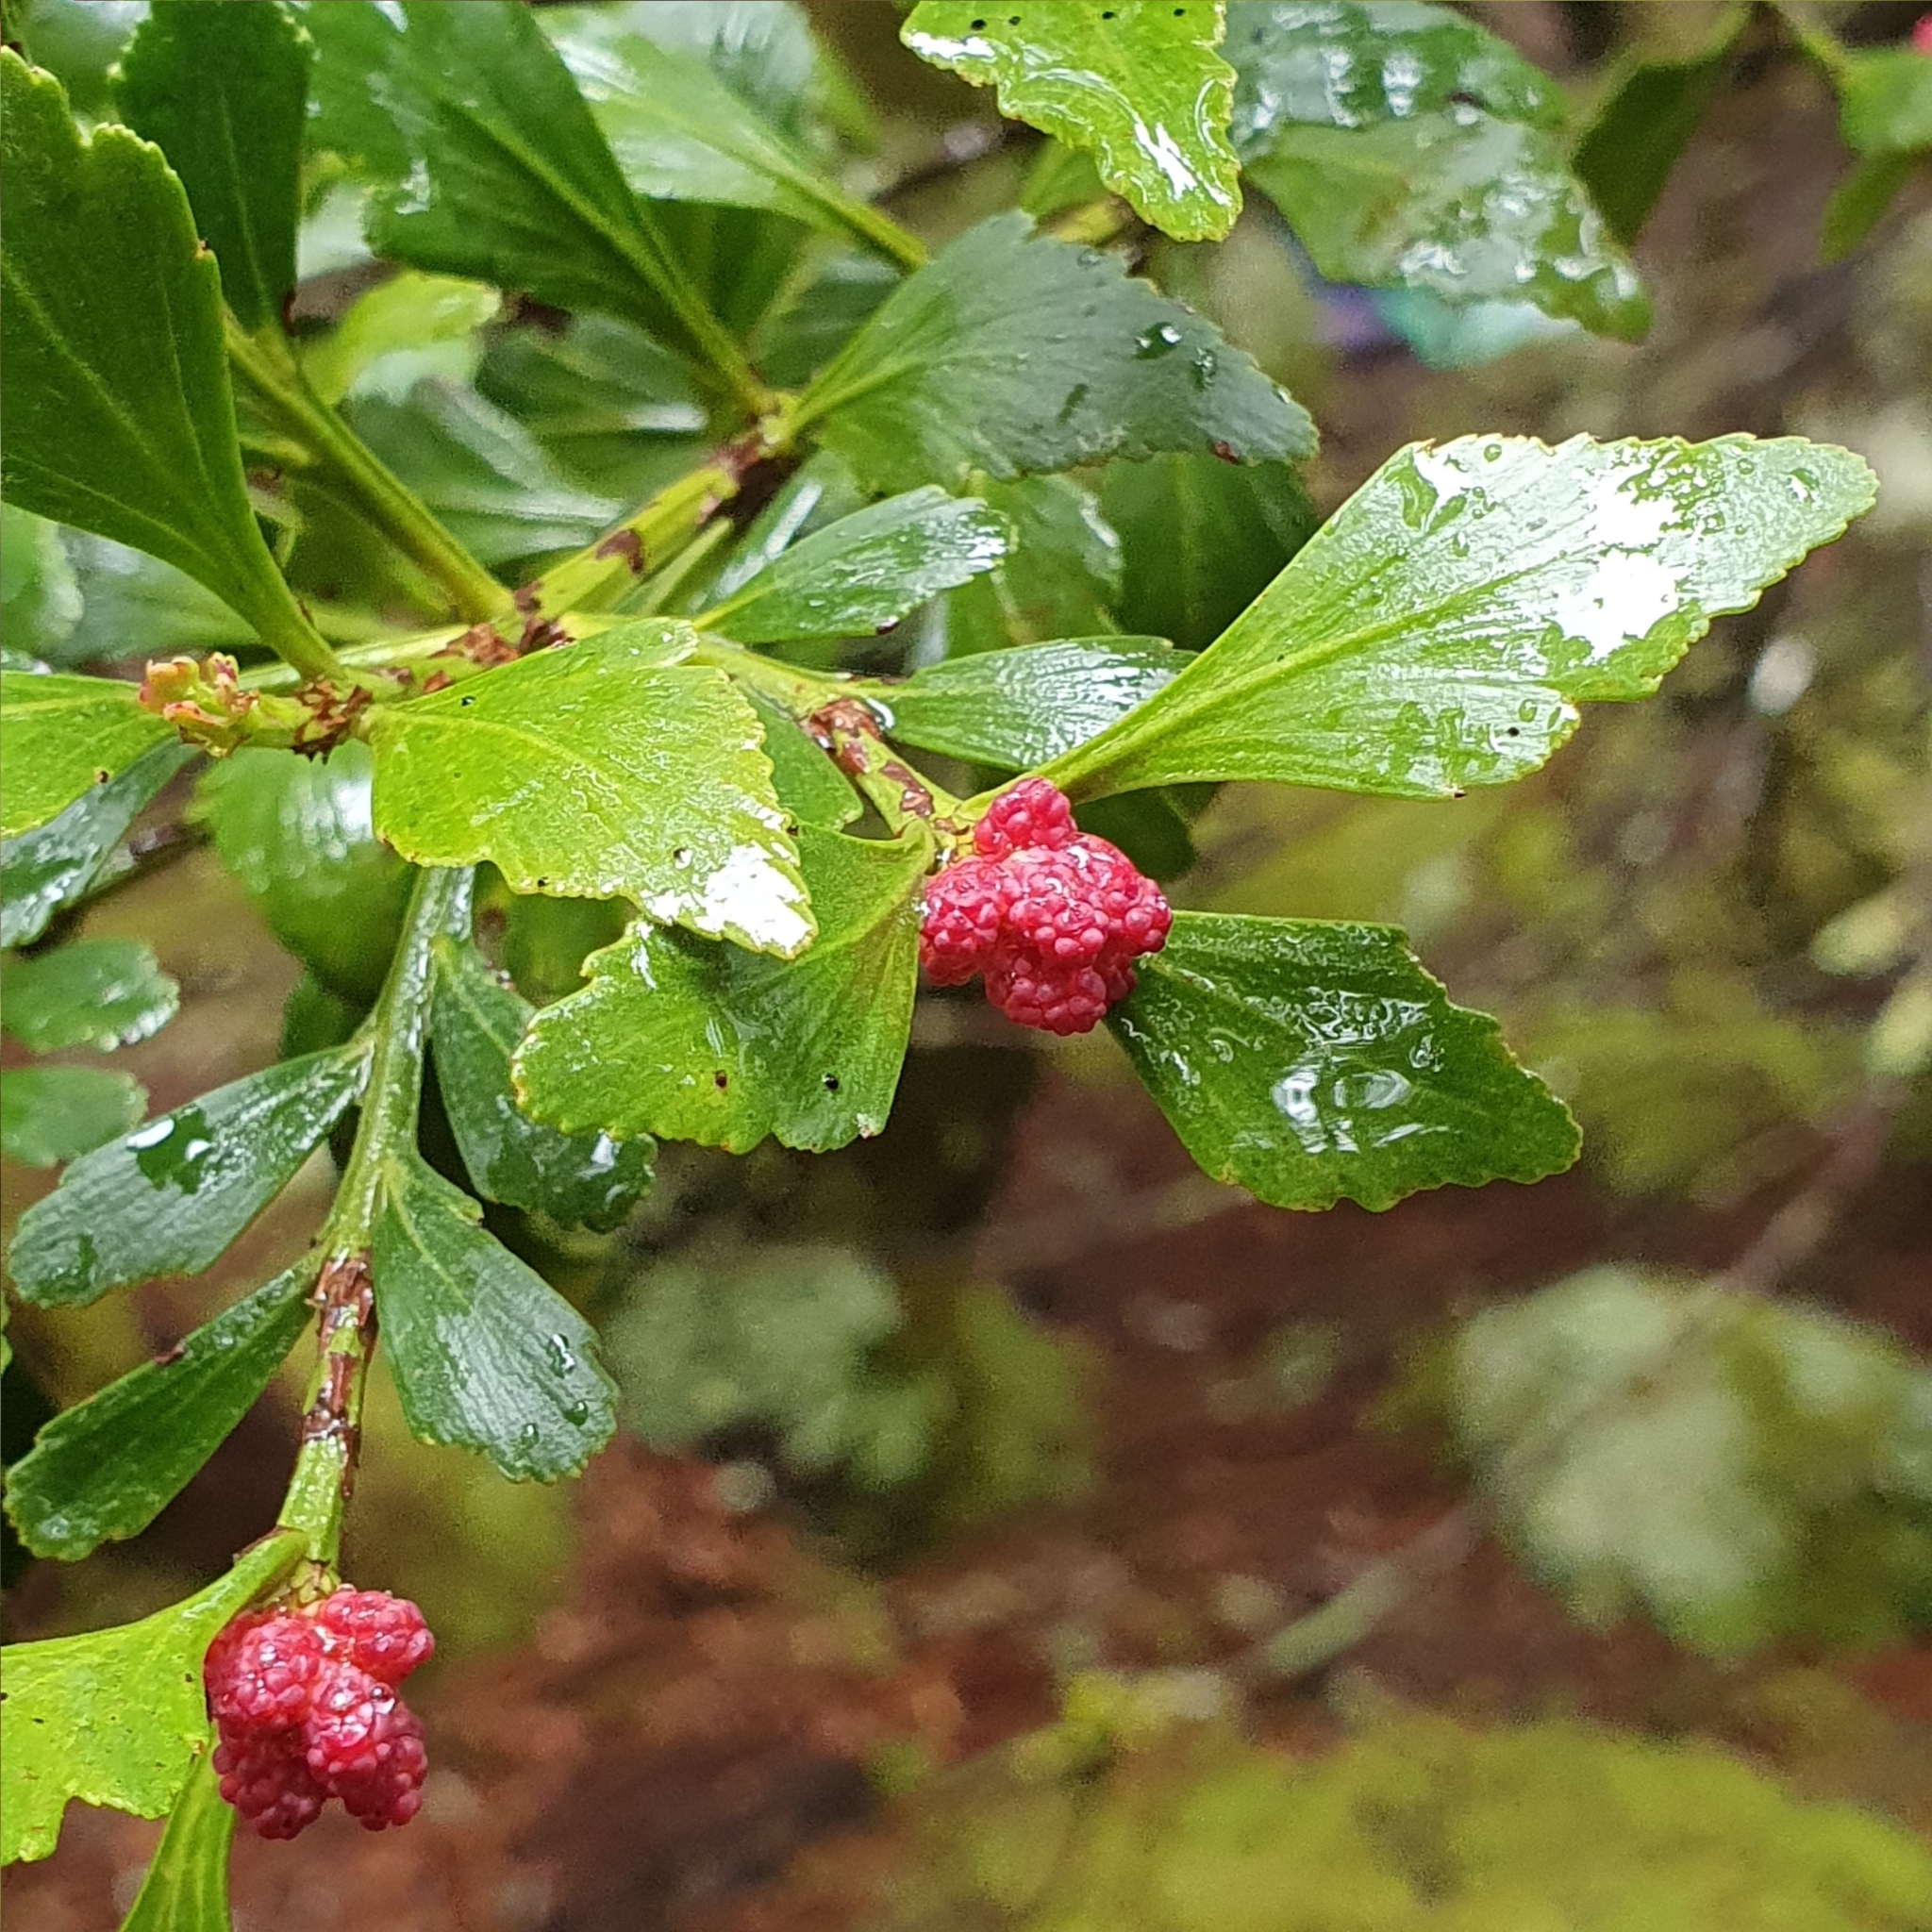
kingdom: Plantae
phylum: Tracheophyta
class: Pinopsida
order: Pinales
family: Phyllocladaceae
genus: Phyllocladus
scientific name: Phyllocladus aspleniifolius
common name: Celery-top pine
